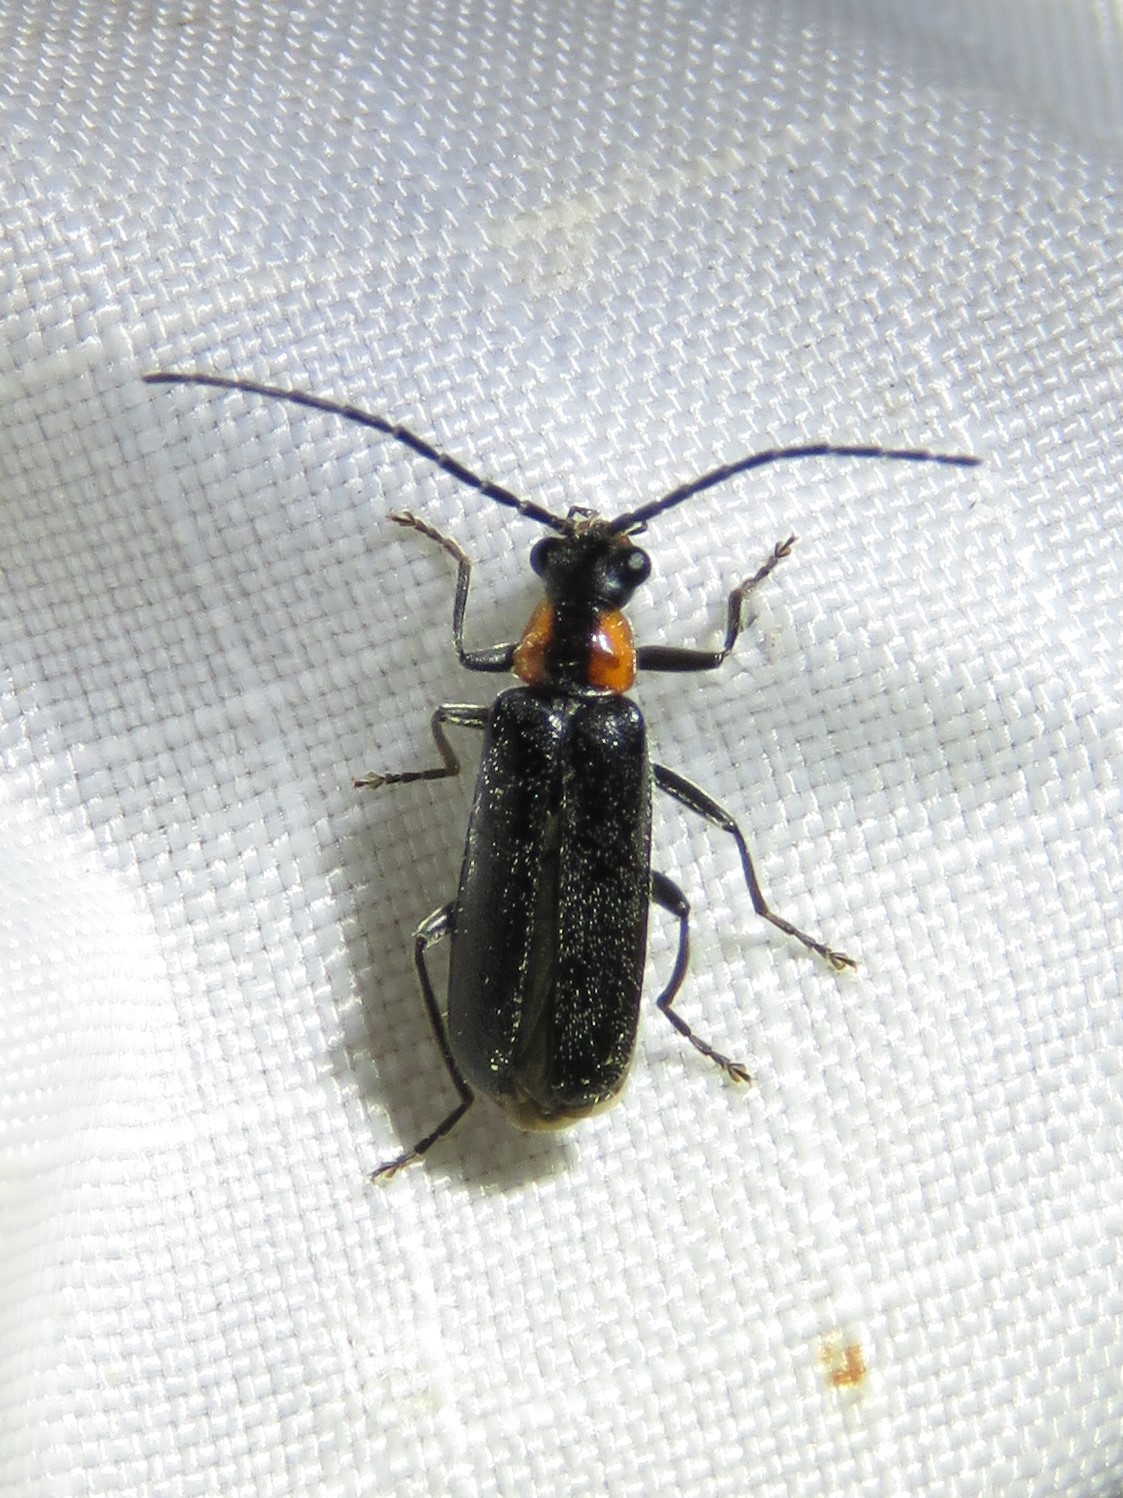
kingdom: Animalia
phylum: Arthropoda
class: Insecta
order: Coleoptera
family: Cantharidae
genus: Rhagonycha
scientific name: Rhagonycha lineola
